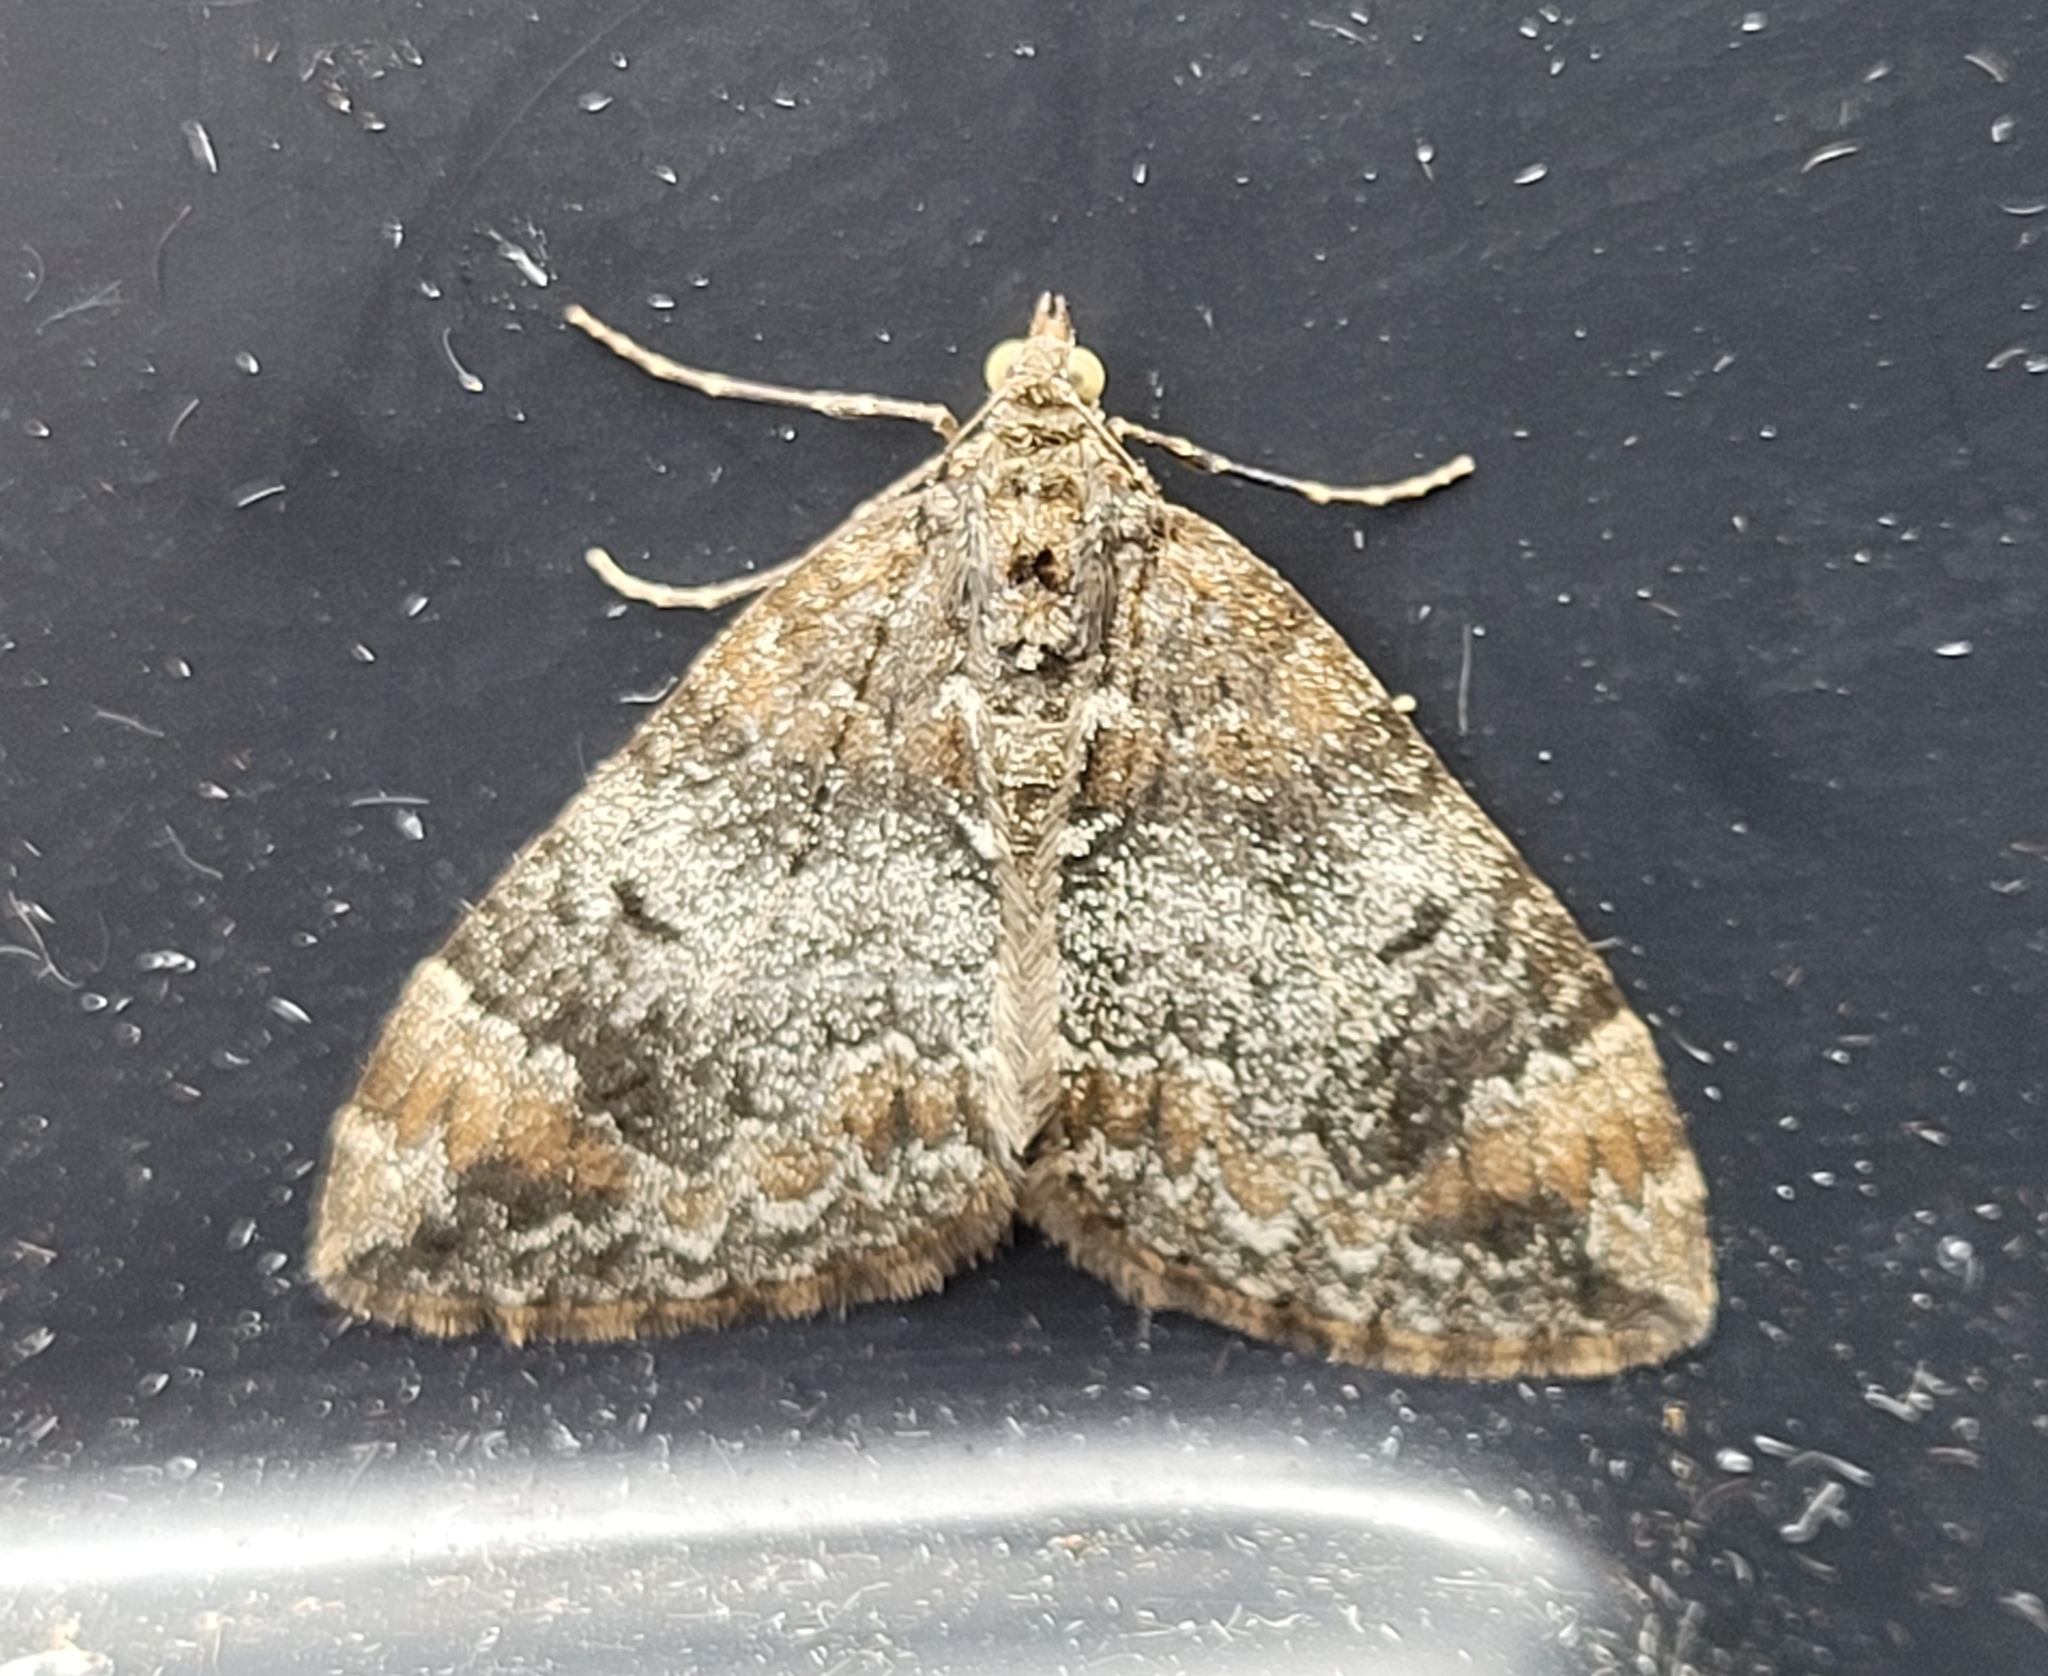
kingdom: Animalia
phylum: Arthropoda
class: Insecta
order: Lepidoptera
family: Geometridae
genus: Dysstroma
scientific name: Dysstroma truncata
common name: Common marbled carpet
